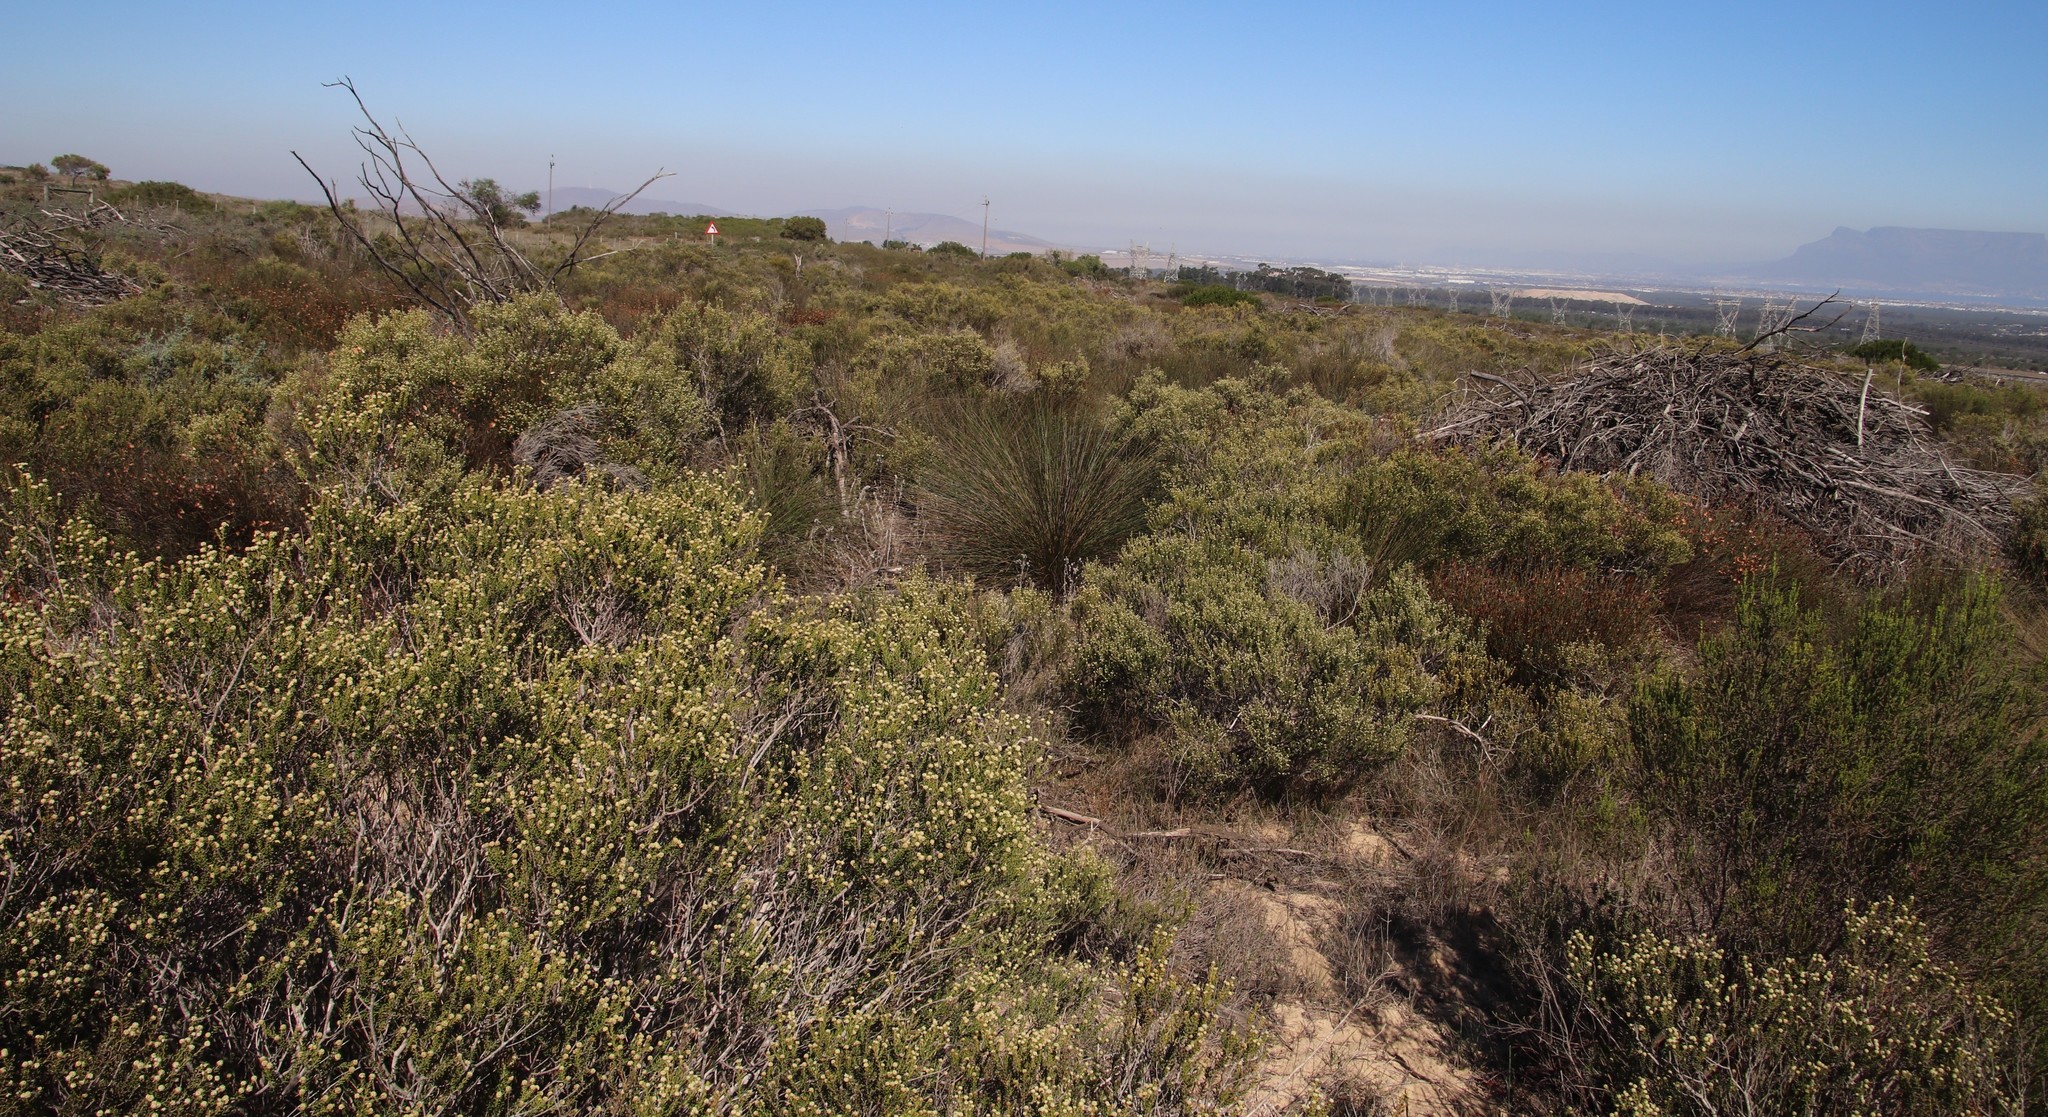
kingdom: Plantae
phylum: Tracheophyta
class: Liliopsida
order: Poales
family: Restionaceae
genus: Thamnochortus
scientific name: Thamnochortus bachmannii
